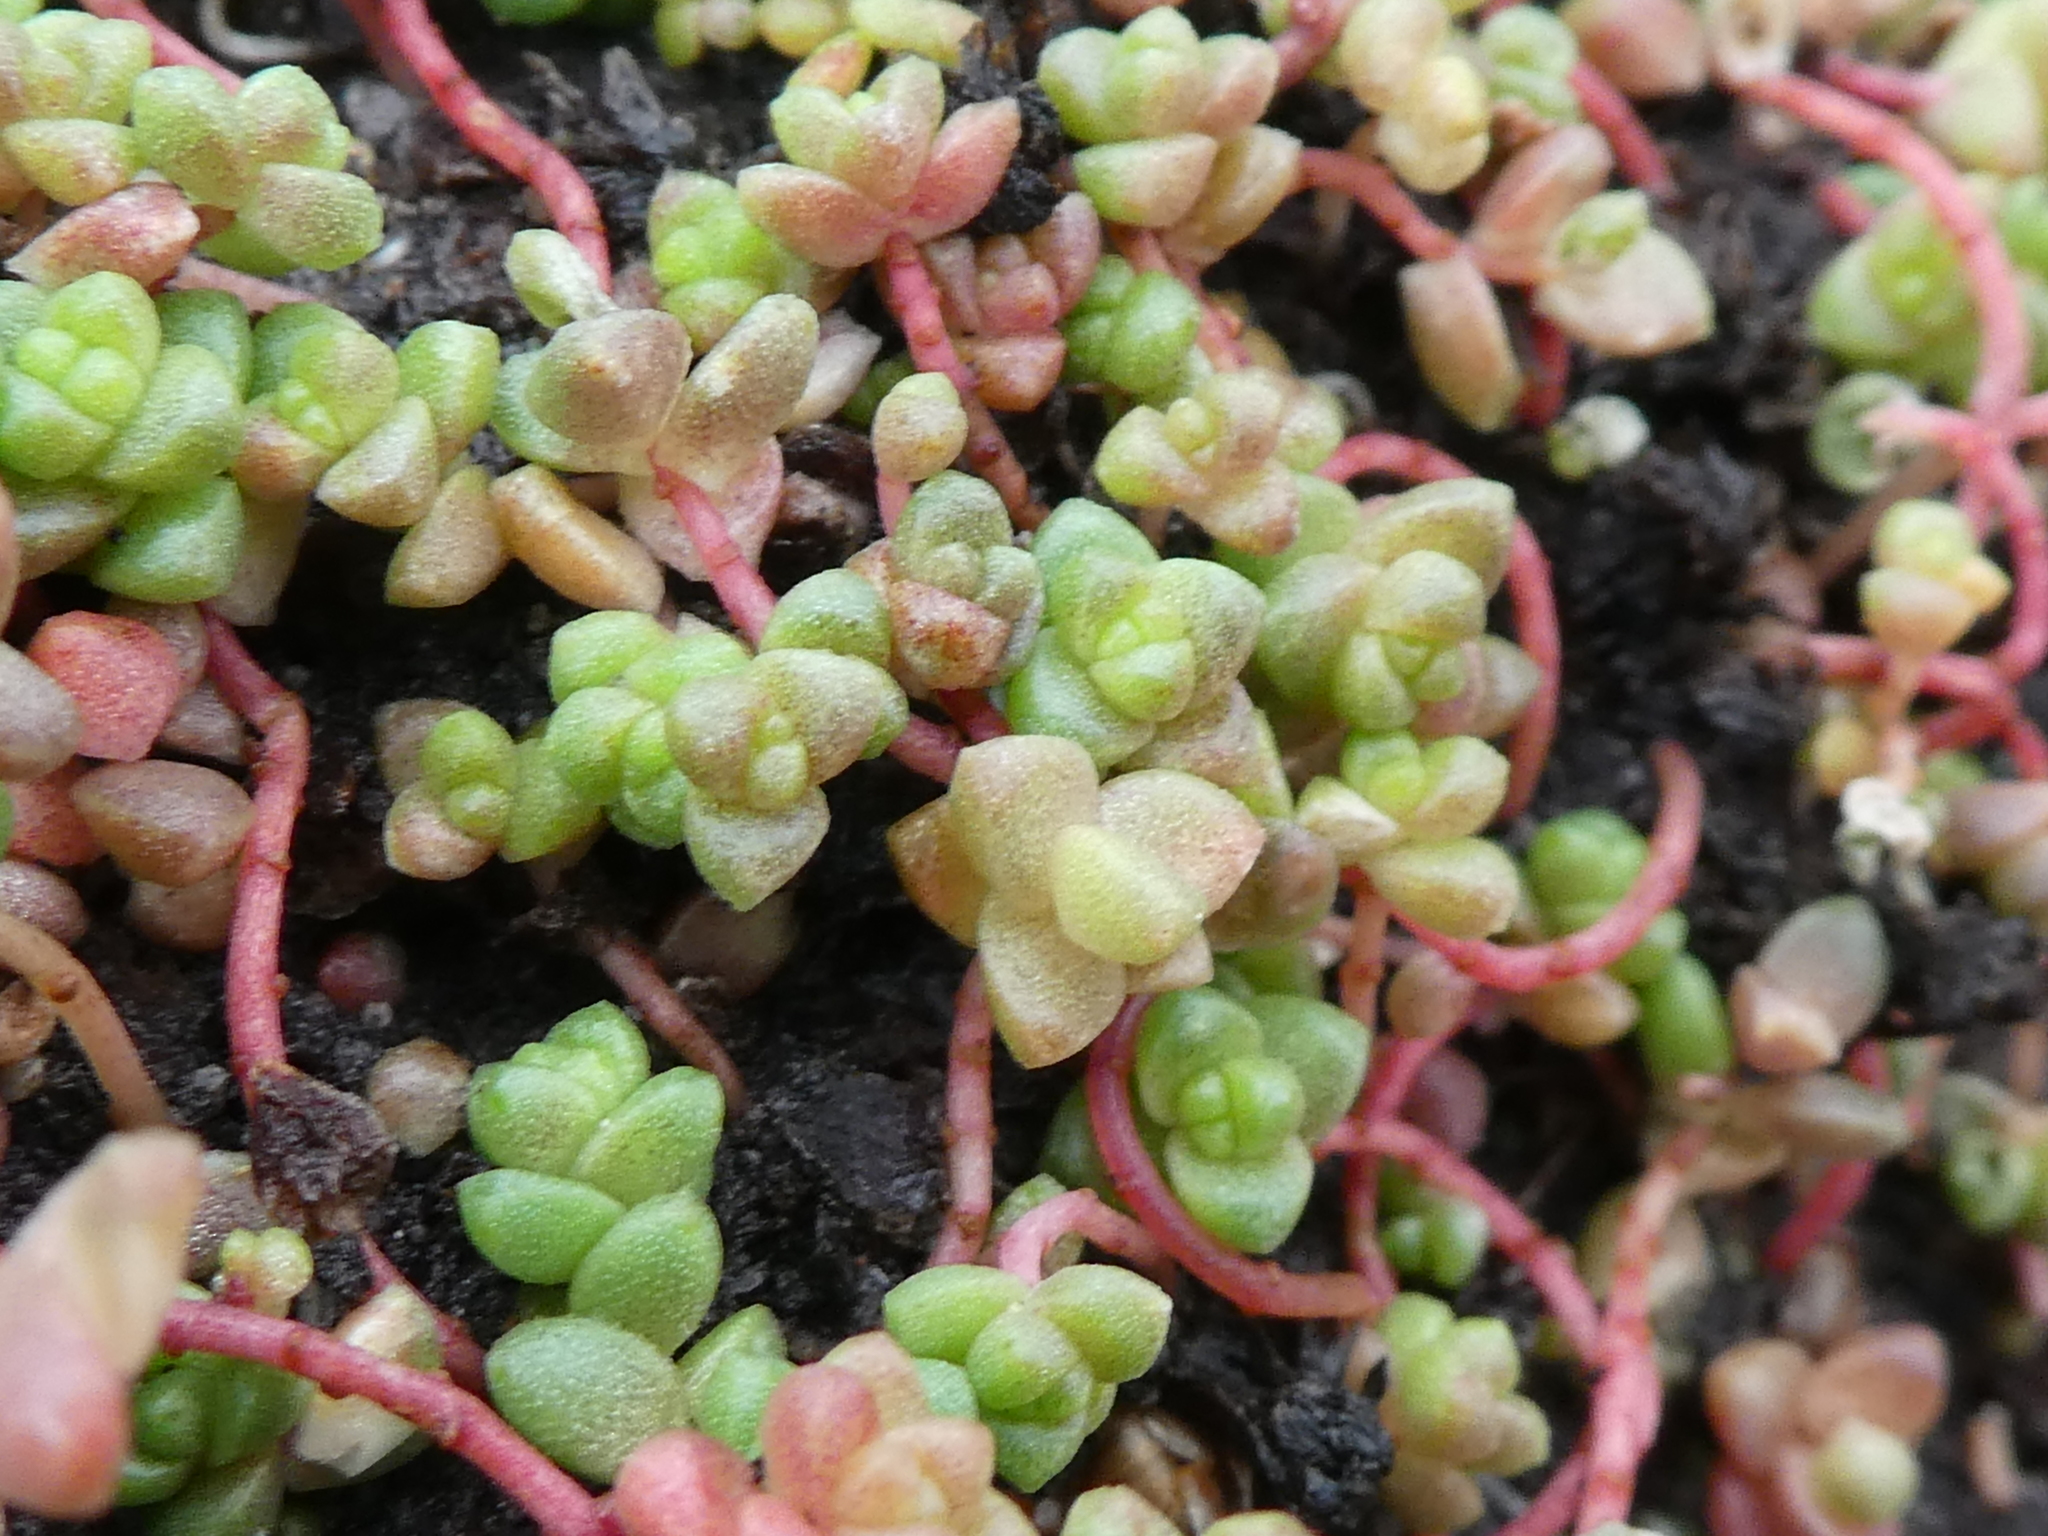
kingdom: Plantae
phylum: Tracheophyta
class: Magnoliopsida
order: Saxifragales
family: Crassulaceae
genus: Sedum
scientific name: Sedum anglicum
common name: English stonecrop
